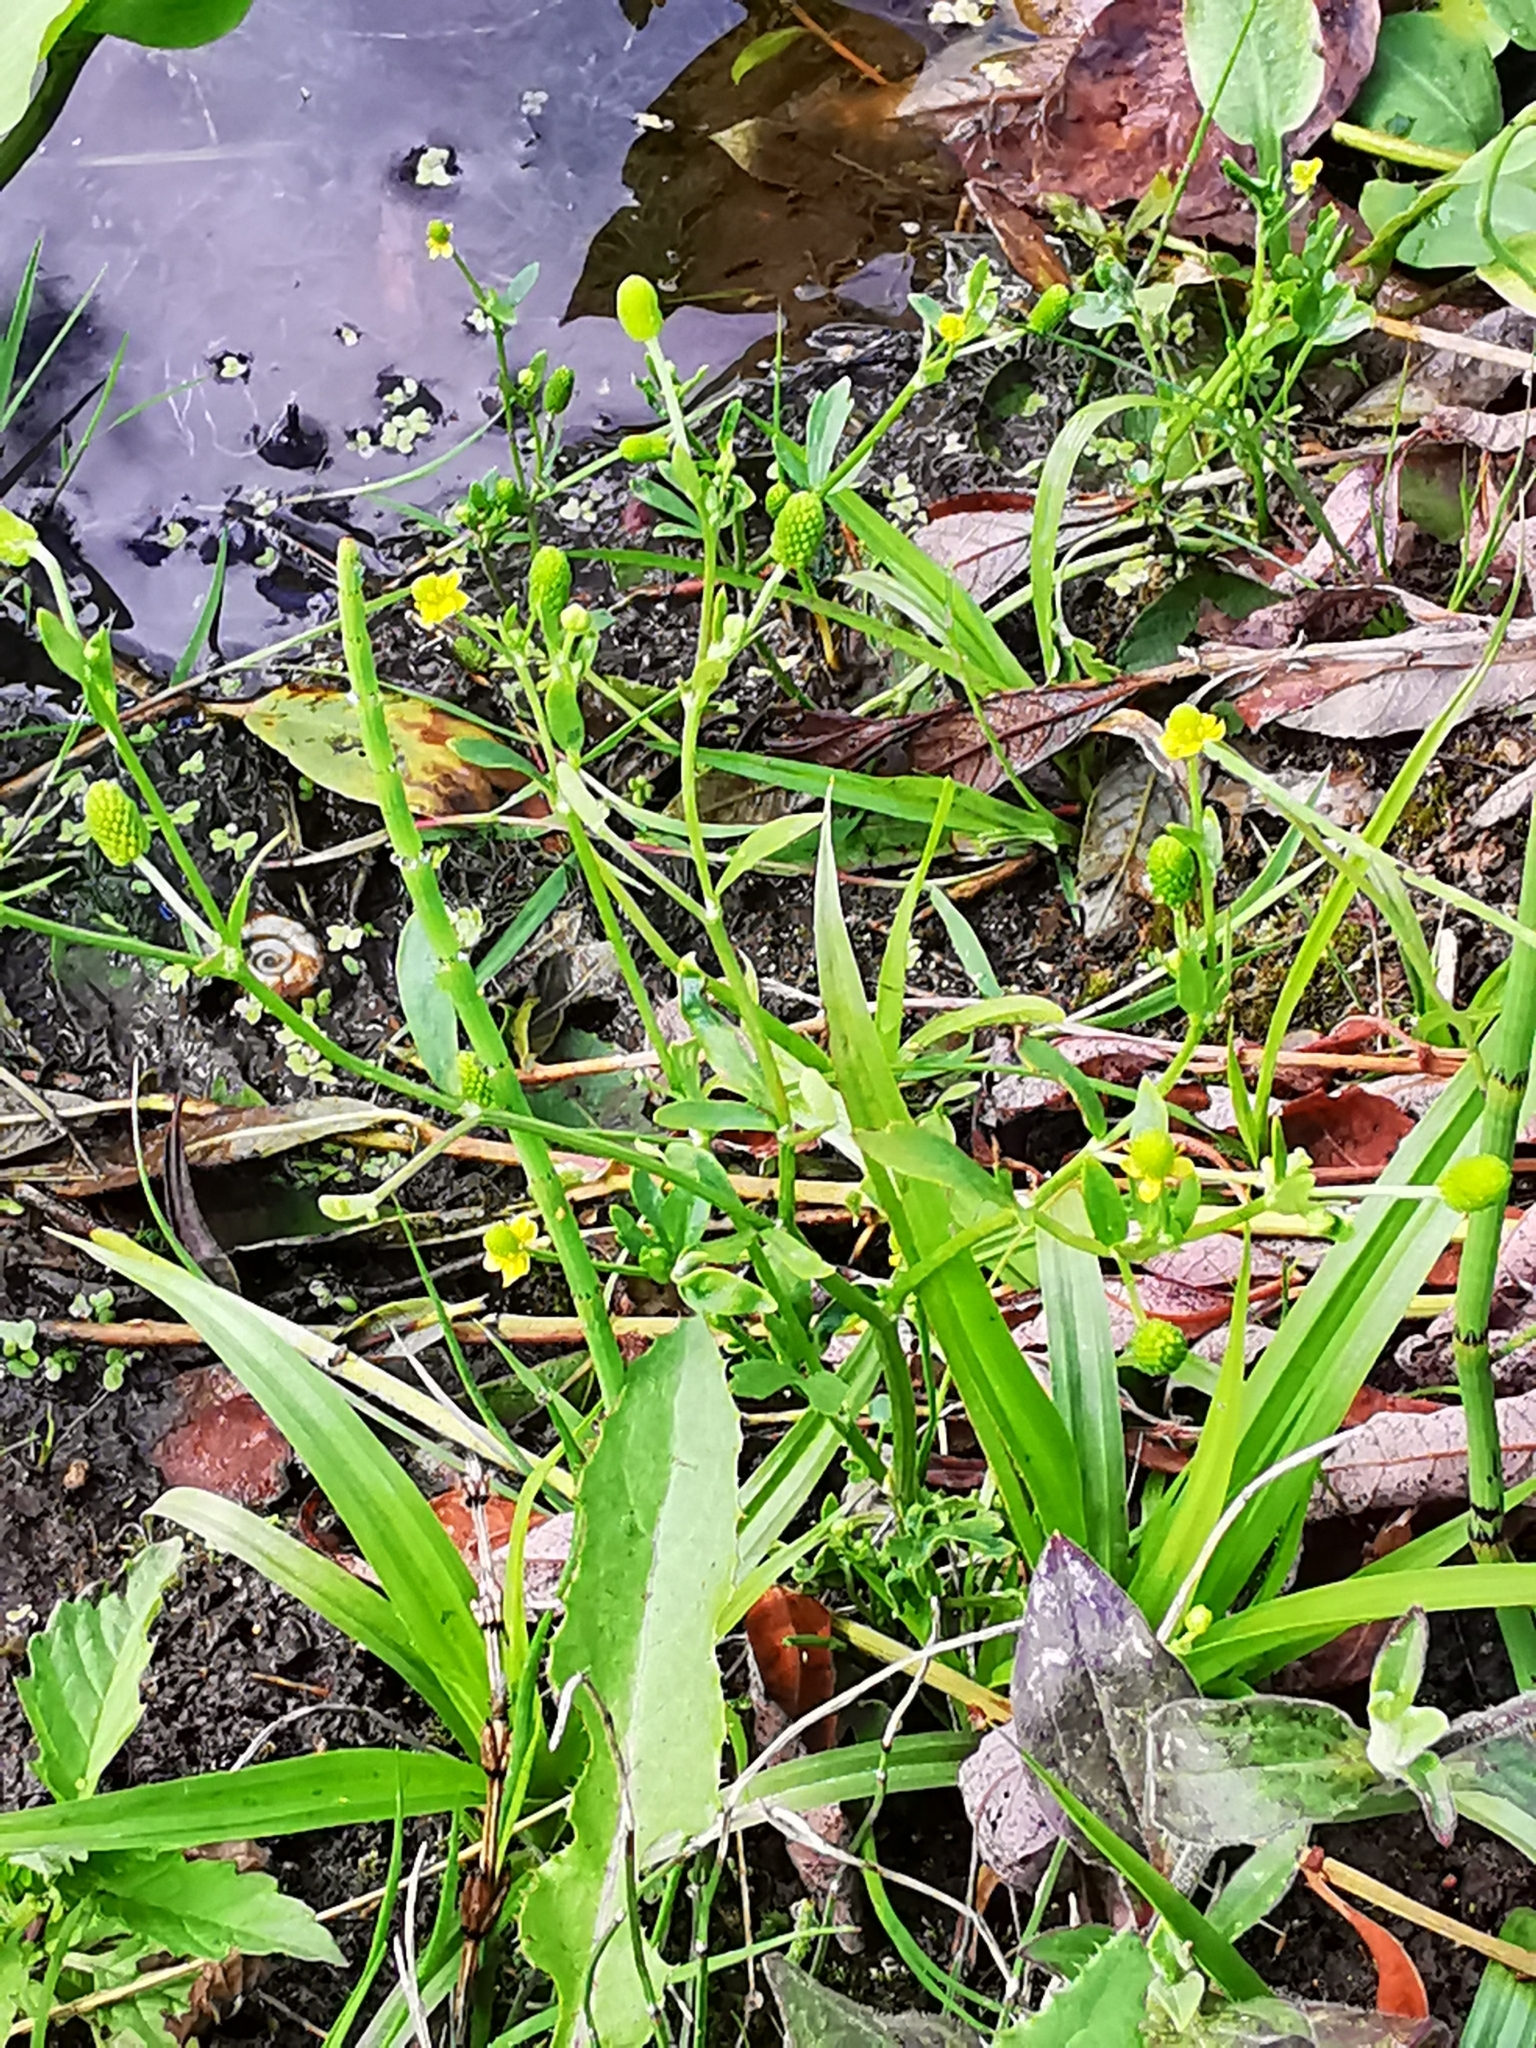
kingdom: Plantae
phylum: Tracheophyta
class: Magnoliopsida
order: Ranunculales
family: Ranunculaceae
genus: Ranunculus
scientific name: Ranunculus sceleratus
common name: Celery-leaved buttercup
